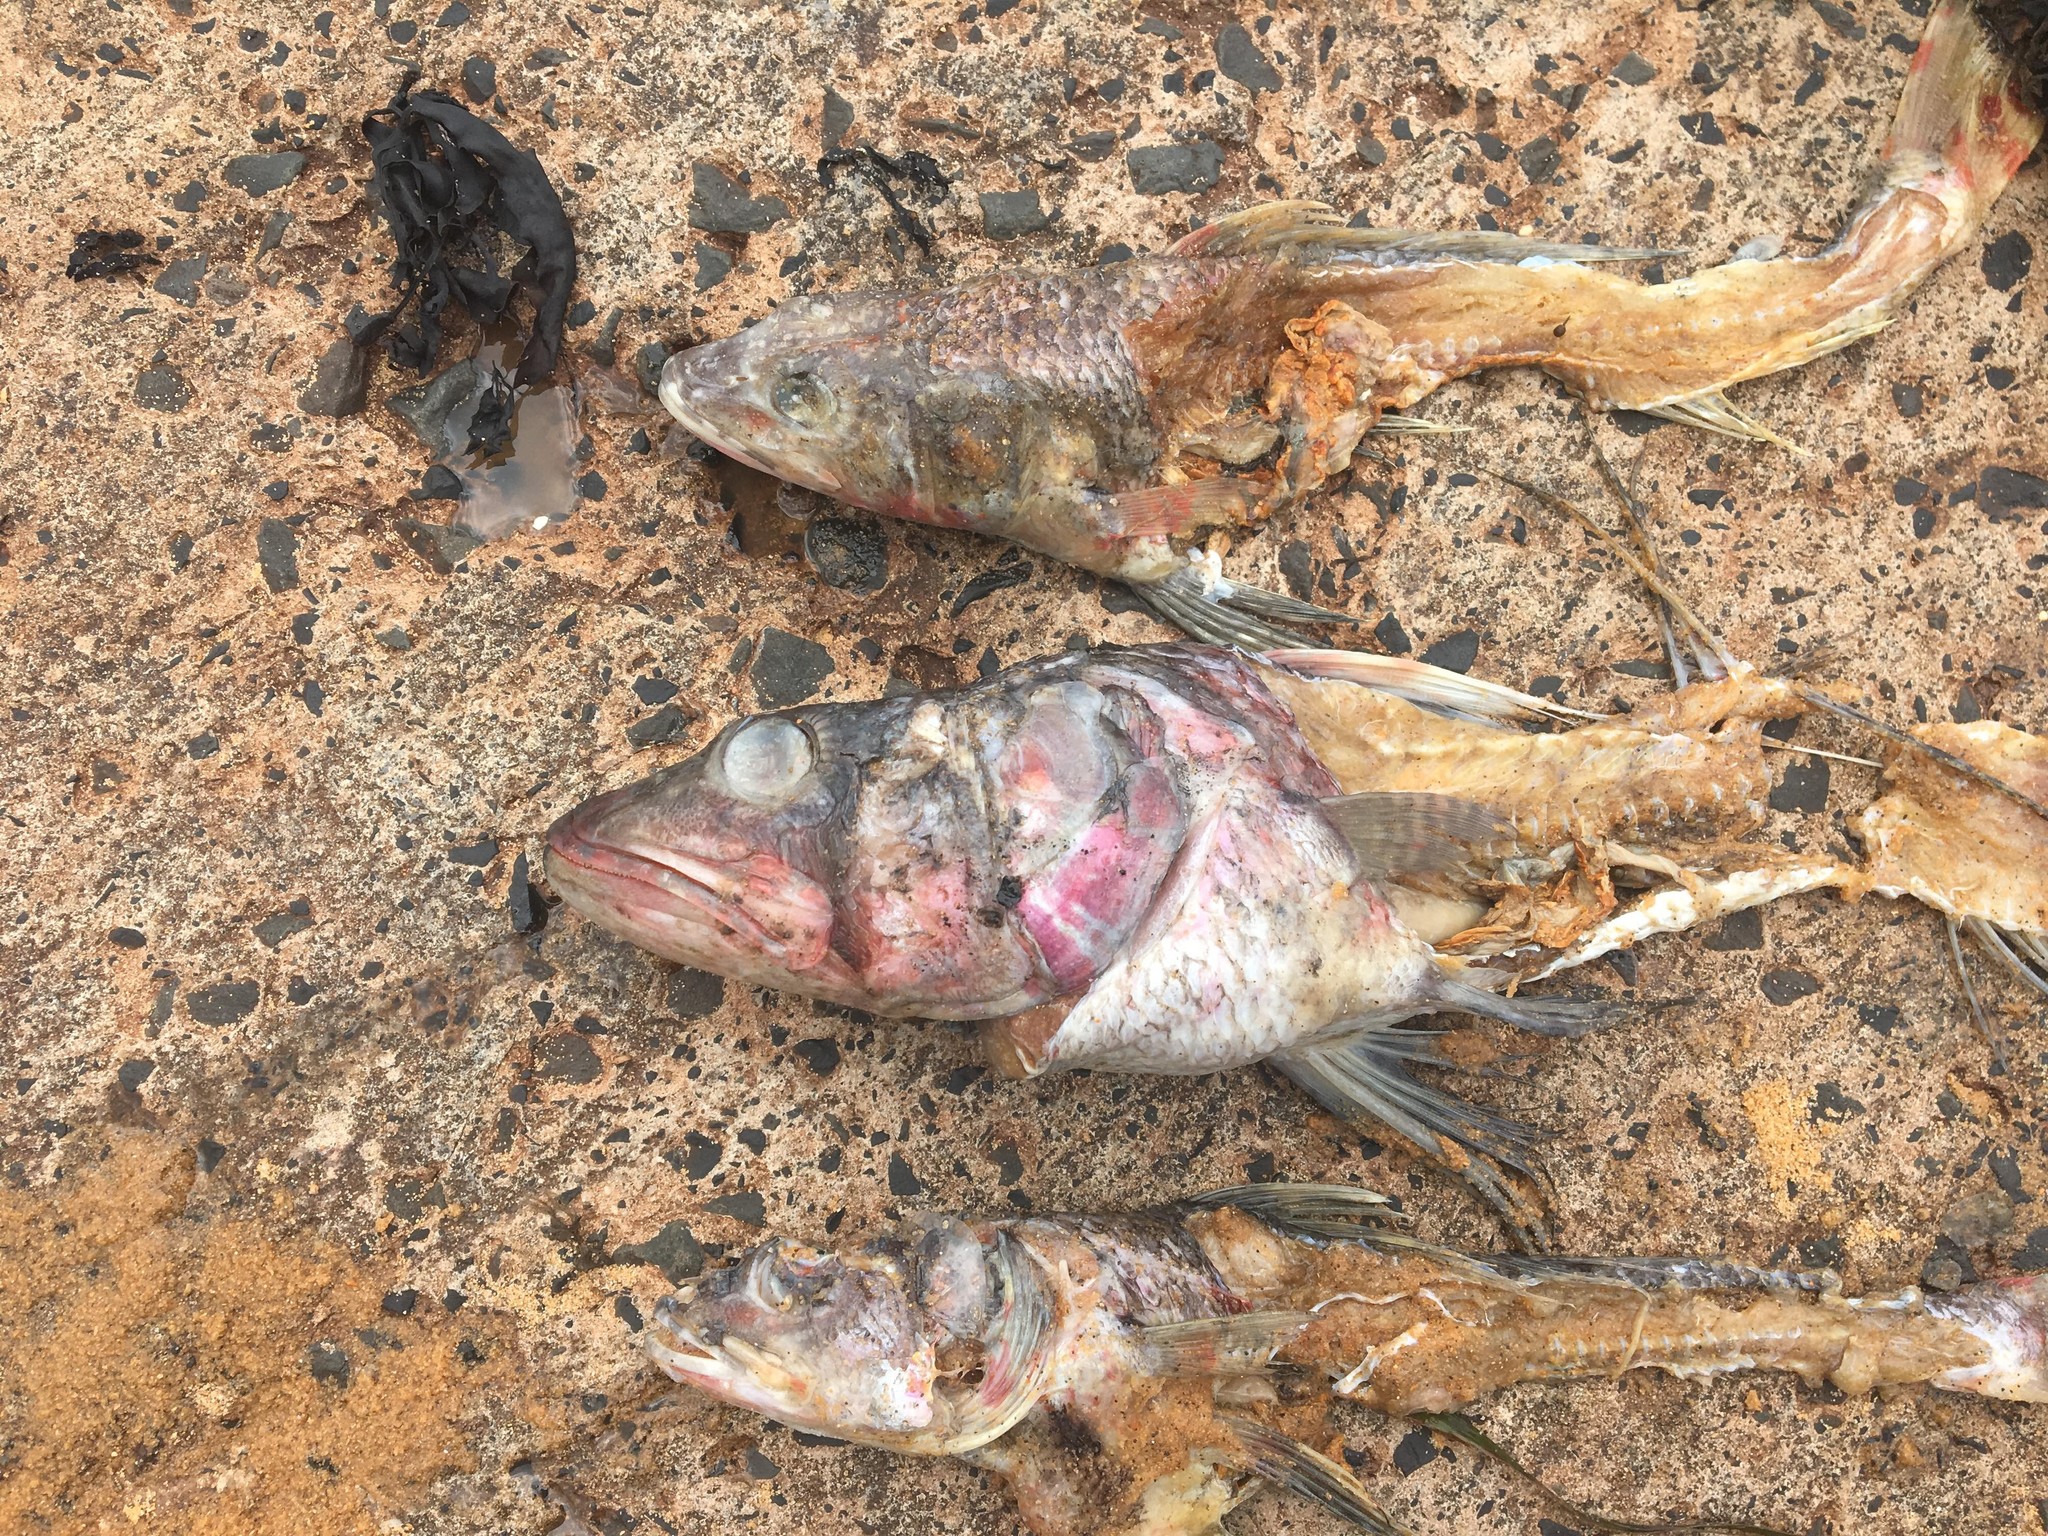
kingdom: Animalia
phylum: Chordata
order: Aulopiformes
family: Aulopidae
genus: Latropiscis
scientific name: Latropiscis purpurissatus
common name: Sergeant baker
